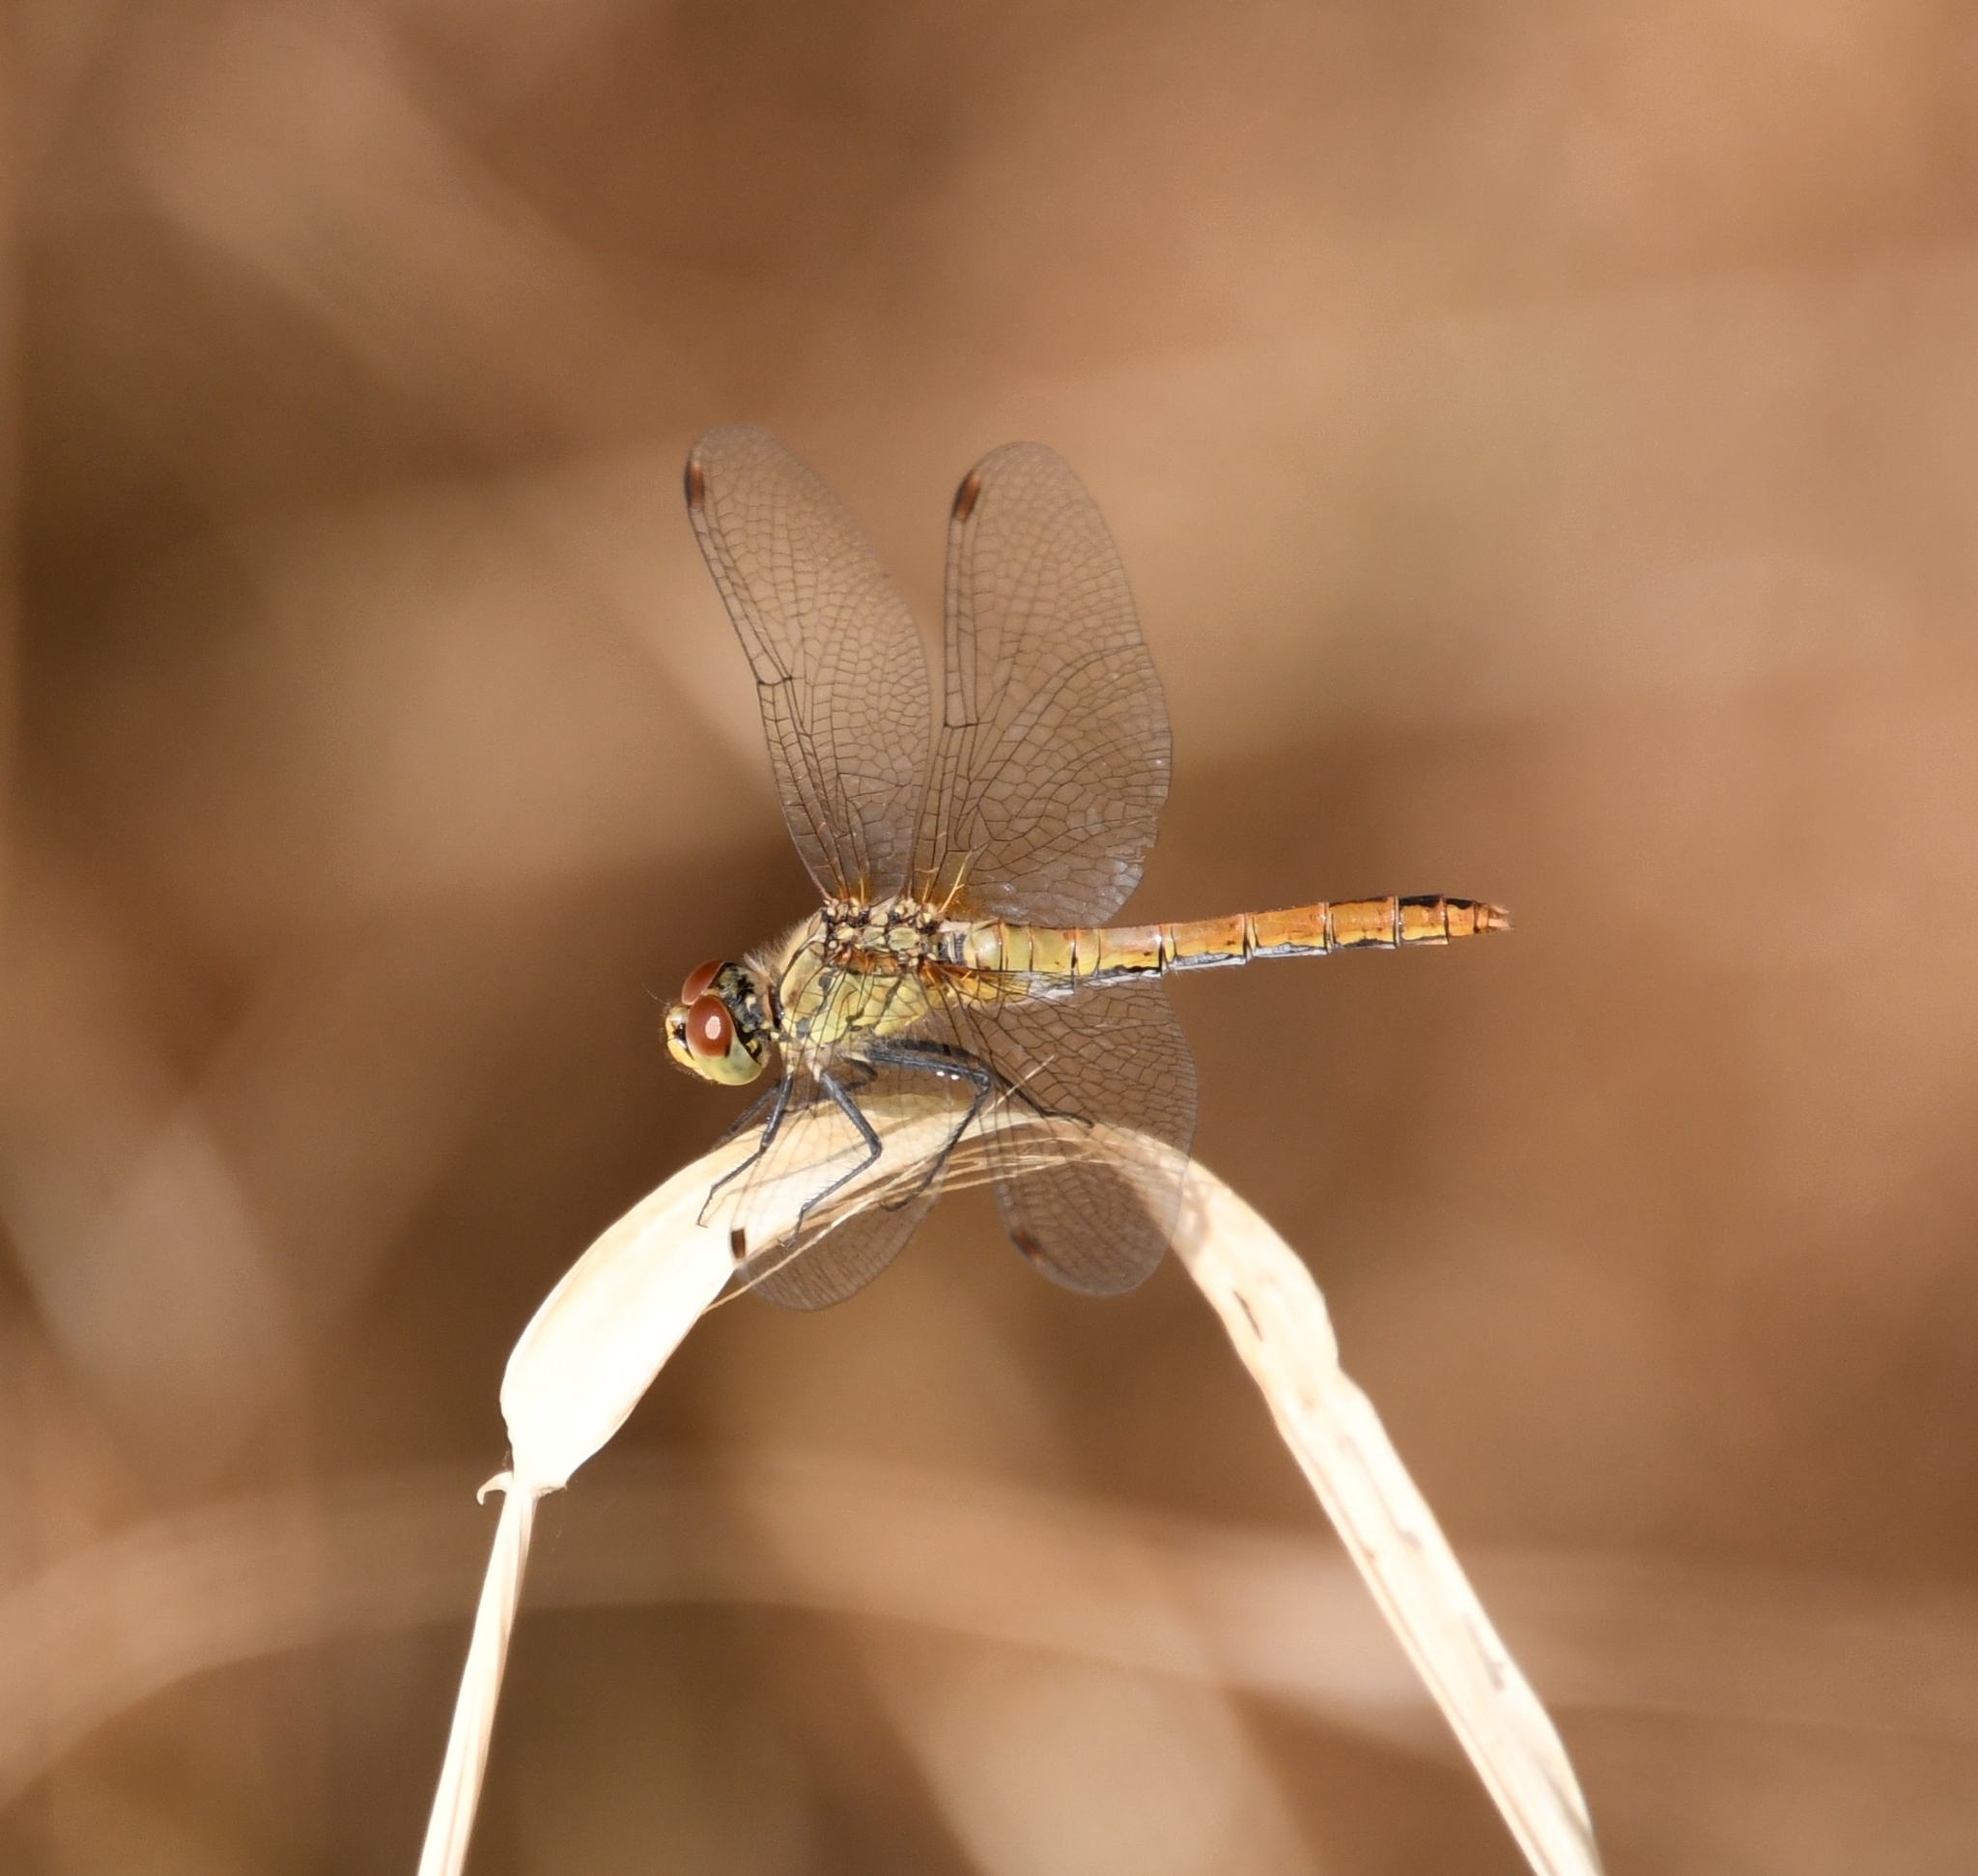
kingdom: Animalia
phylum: Arthropoda
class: Insecta
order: Odonata
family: Libellulidae
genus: Sympetrum
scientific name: Sympetrum sanguineum
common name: Ruddy darter
